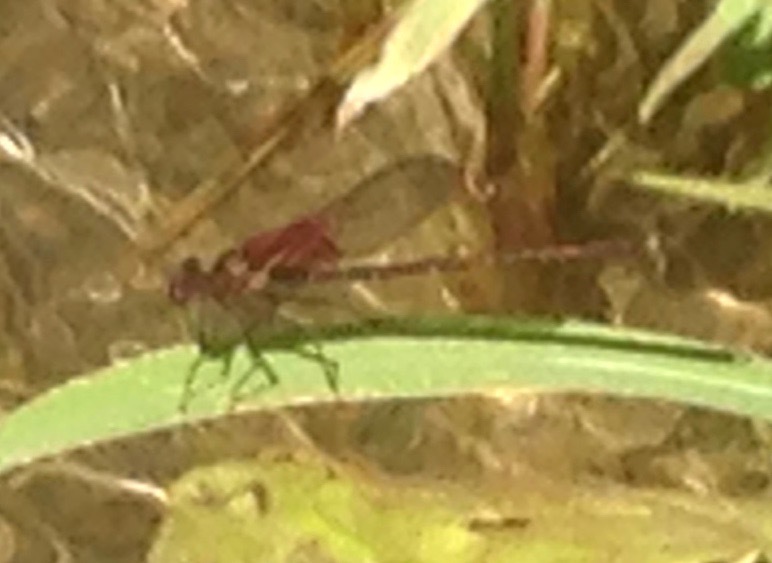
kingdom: Animalia
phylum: Arthropoda
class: Insecta
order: Odonata
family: Calopterygidae
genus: Hetaerina
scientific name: Hetaerina americana
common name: American rubyspot
